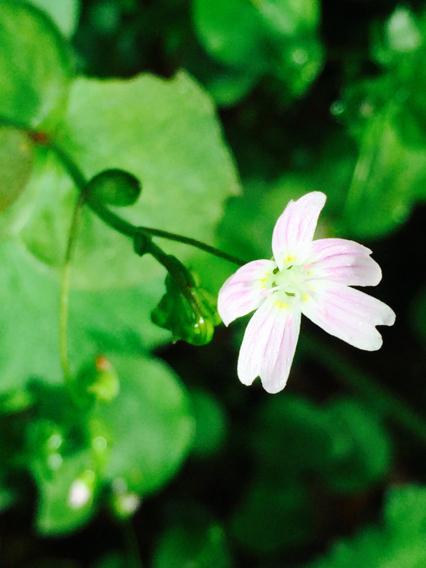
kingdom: Plantae
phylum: Tracheophyta
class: Magnoliopsida
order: Caryophyllales
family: Montiaceae
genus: Claytonia
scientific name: Claytonia sibirica
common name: Pink purslane
